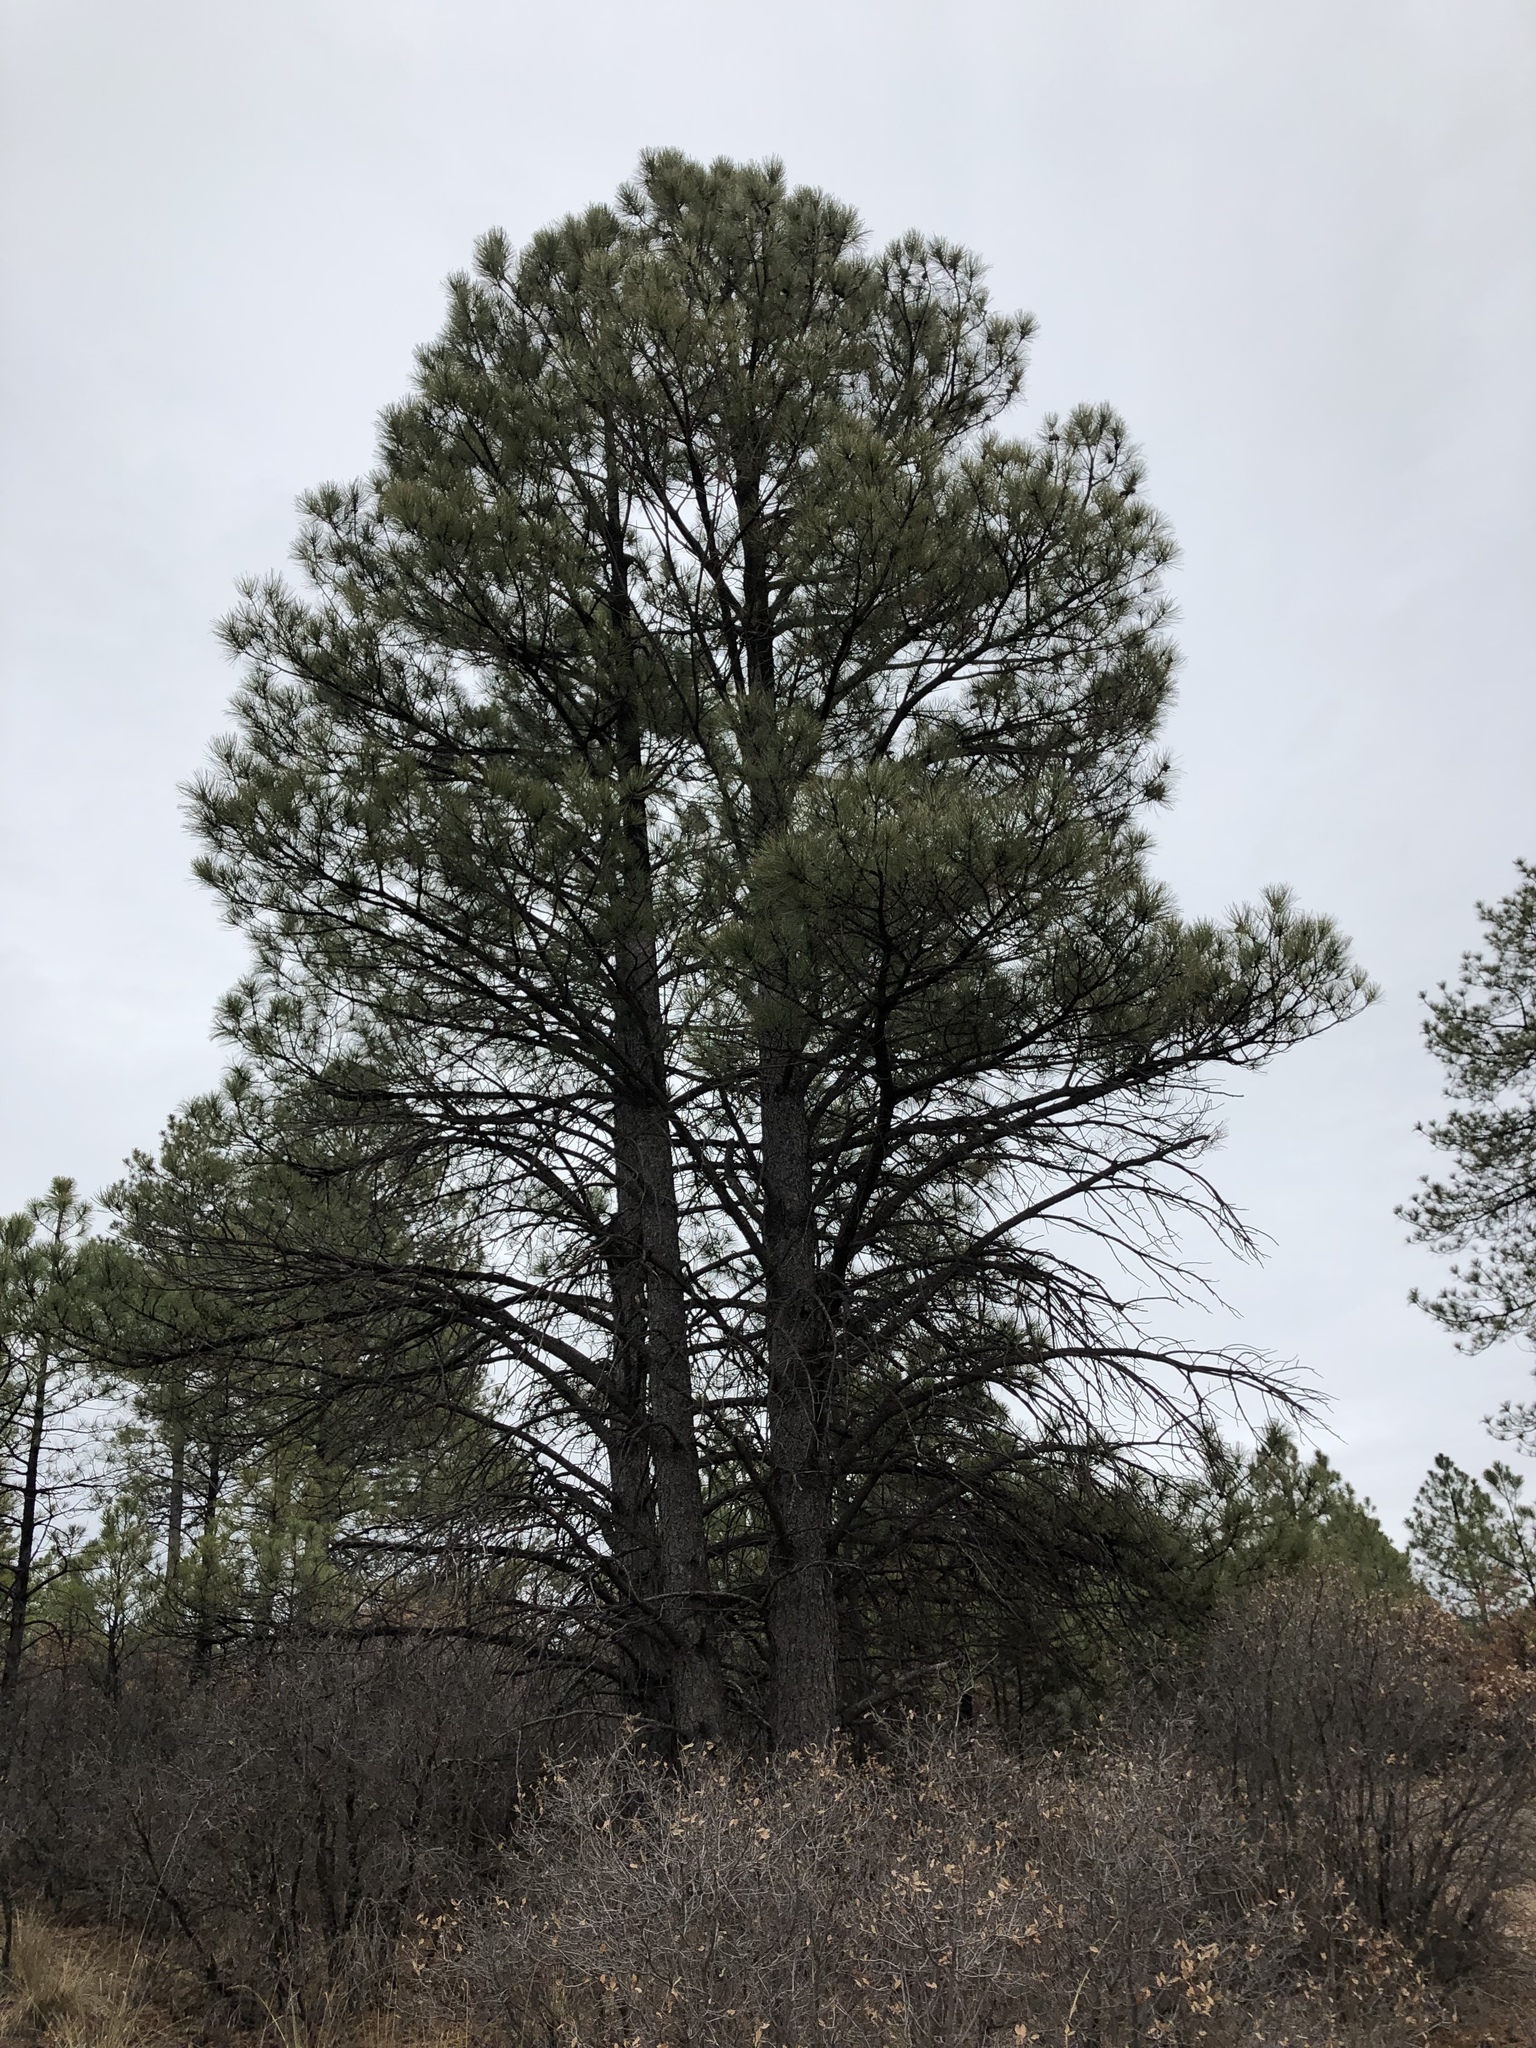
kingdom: Plantae
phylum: Tracheophyta
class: Pinopsida
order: Pinales
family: Pinaceae
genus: Pinus
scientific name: Pinus ponderosa
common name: Western yellow-pine
